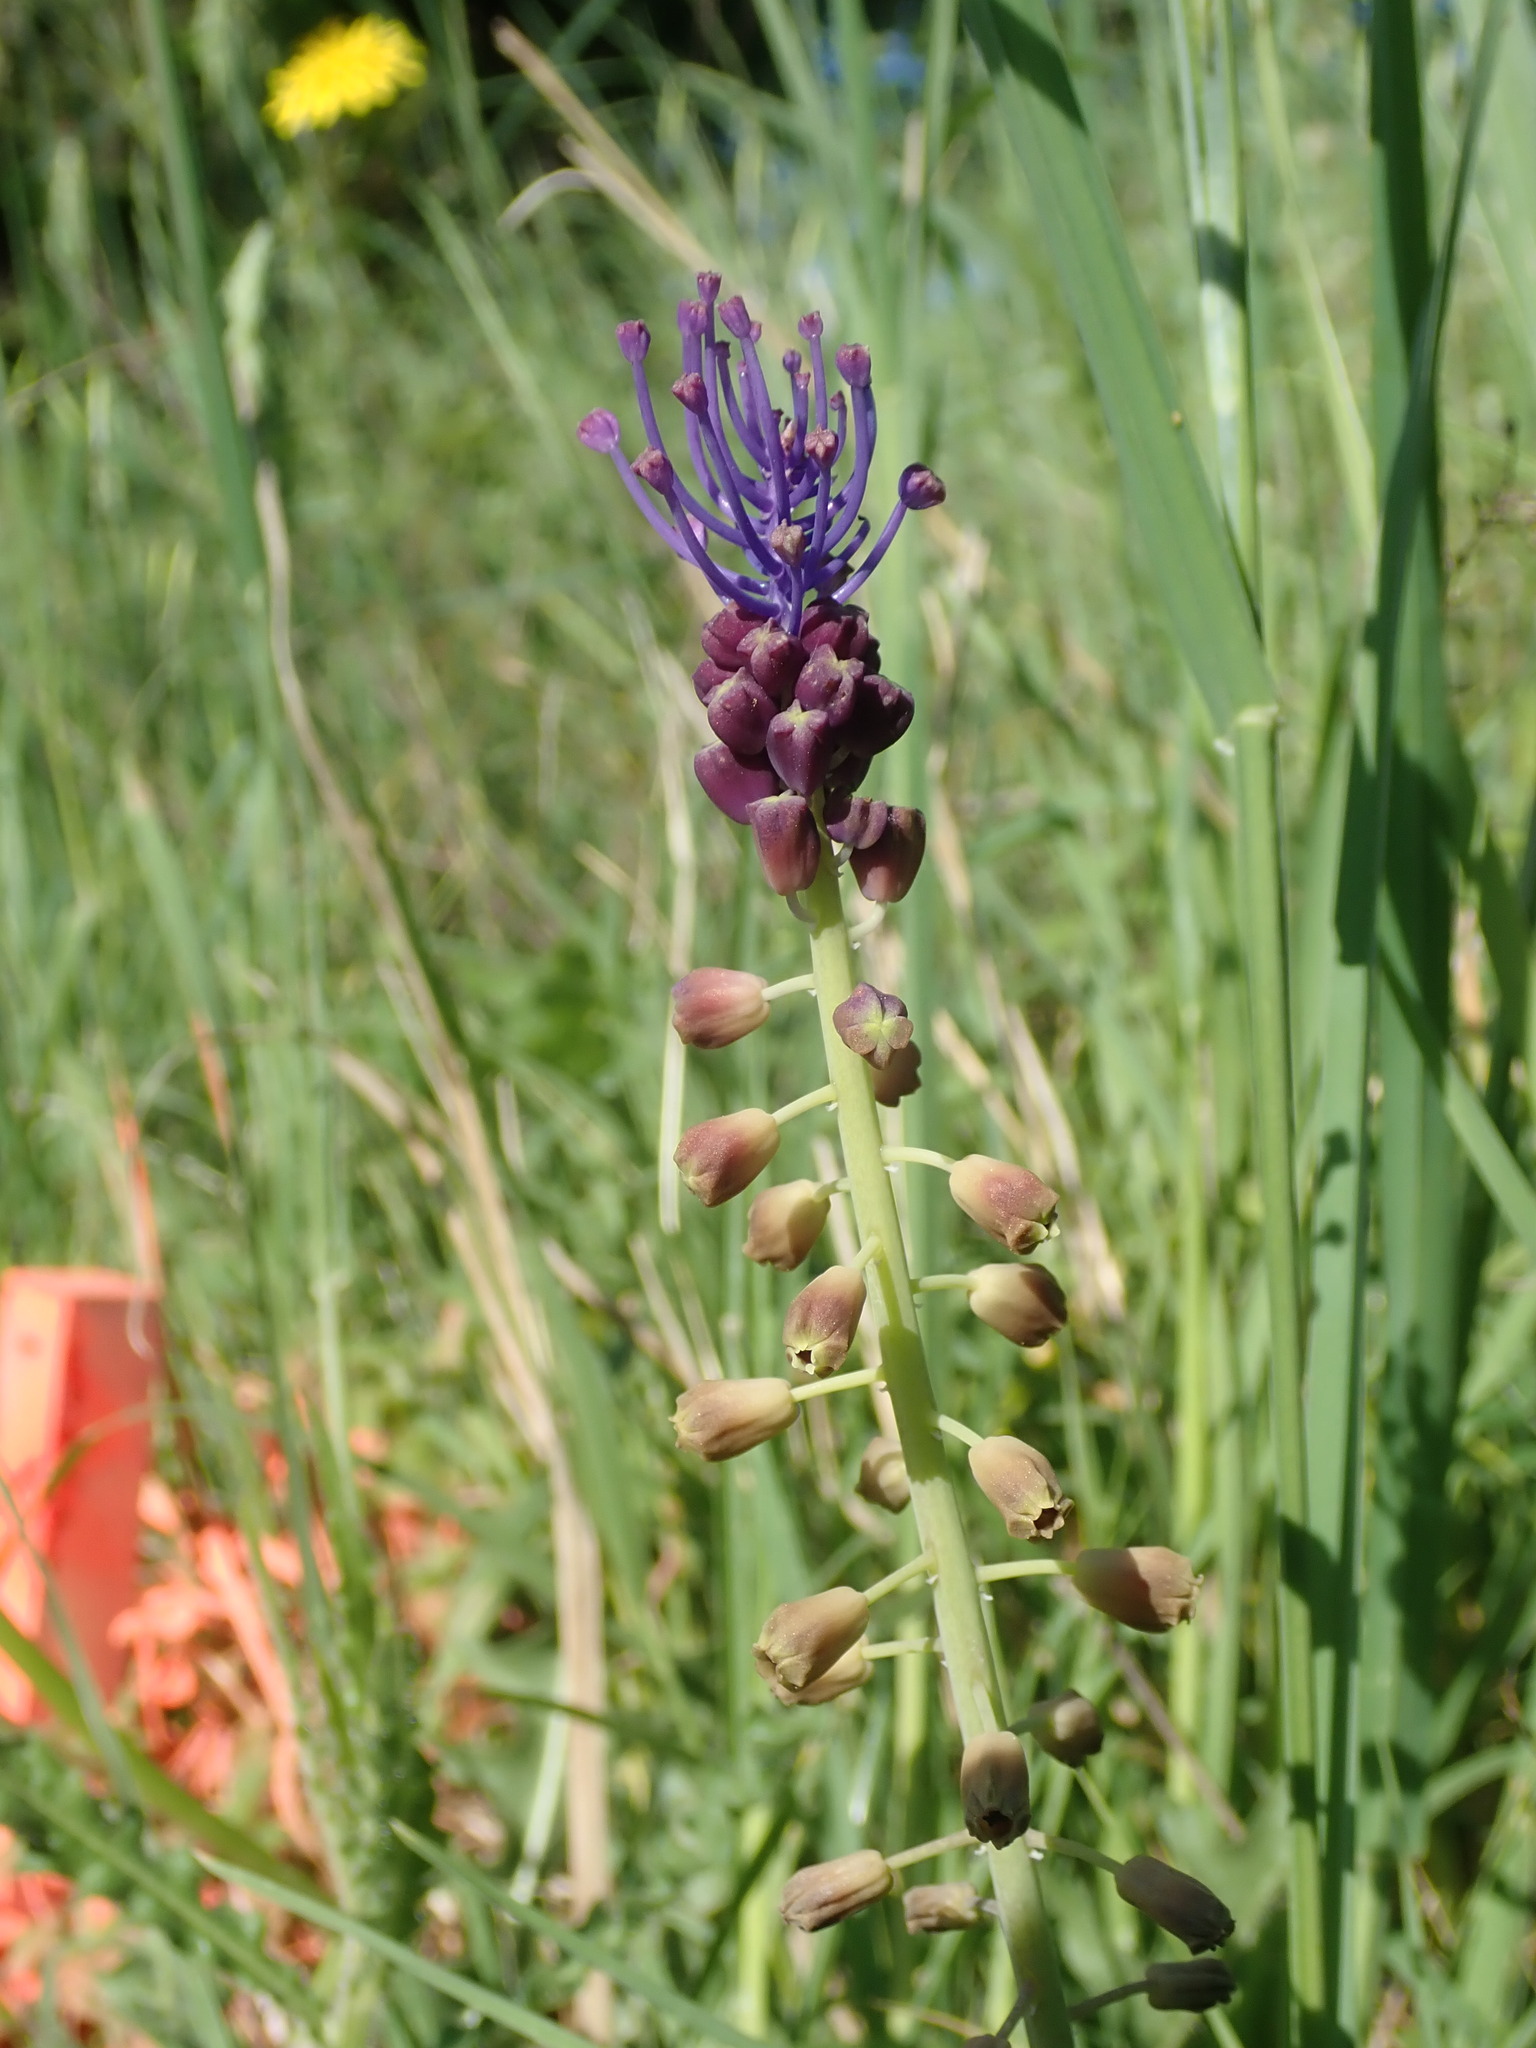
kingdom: Plantae
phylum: Tracheophyta
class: Liliopsida
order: Asparagales
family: Asparagaceae
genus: Muscari
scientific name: Muscari comosum
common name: Tassel hyacinth
